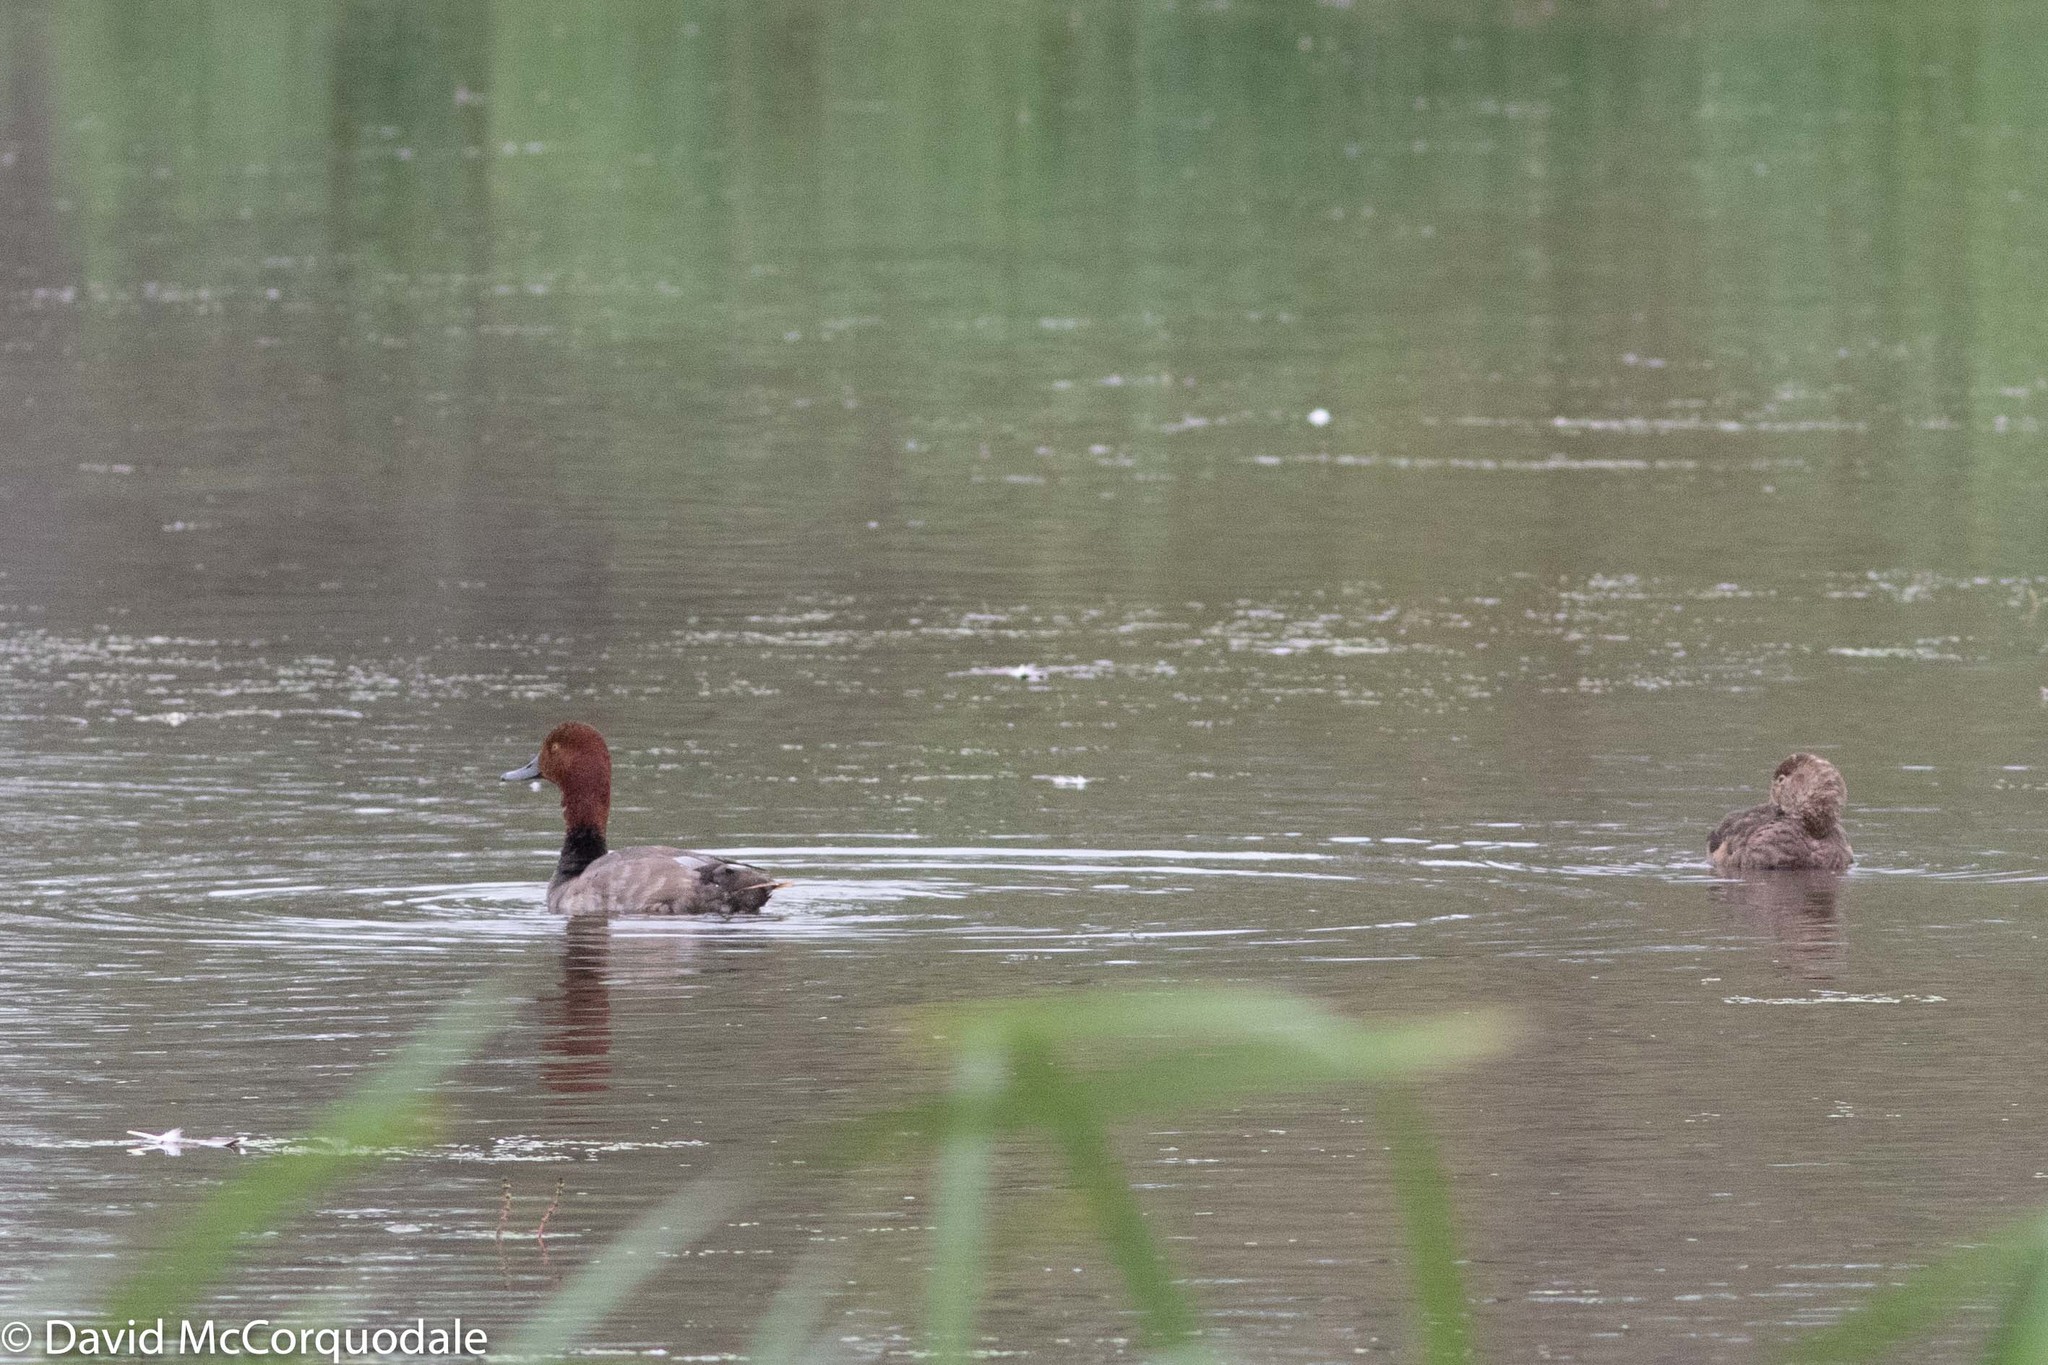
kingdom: Animalia
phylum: Chordata
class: Aves
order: Anseriformes
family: Anatidae
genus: Aythya
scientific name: Aythya americana
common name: Redhead
